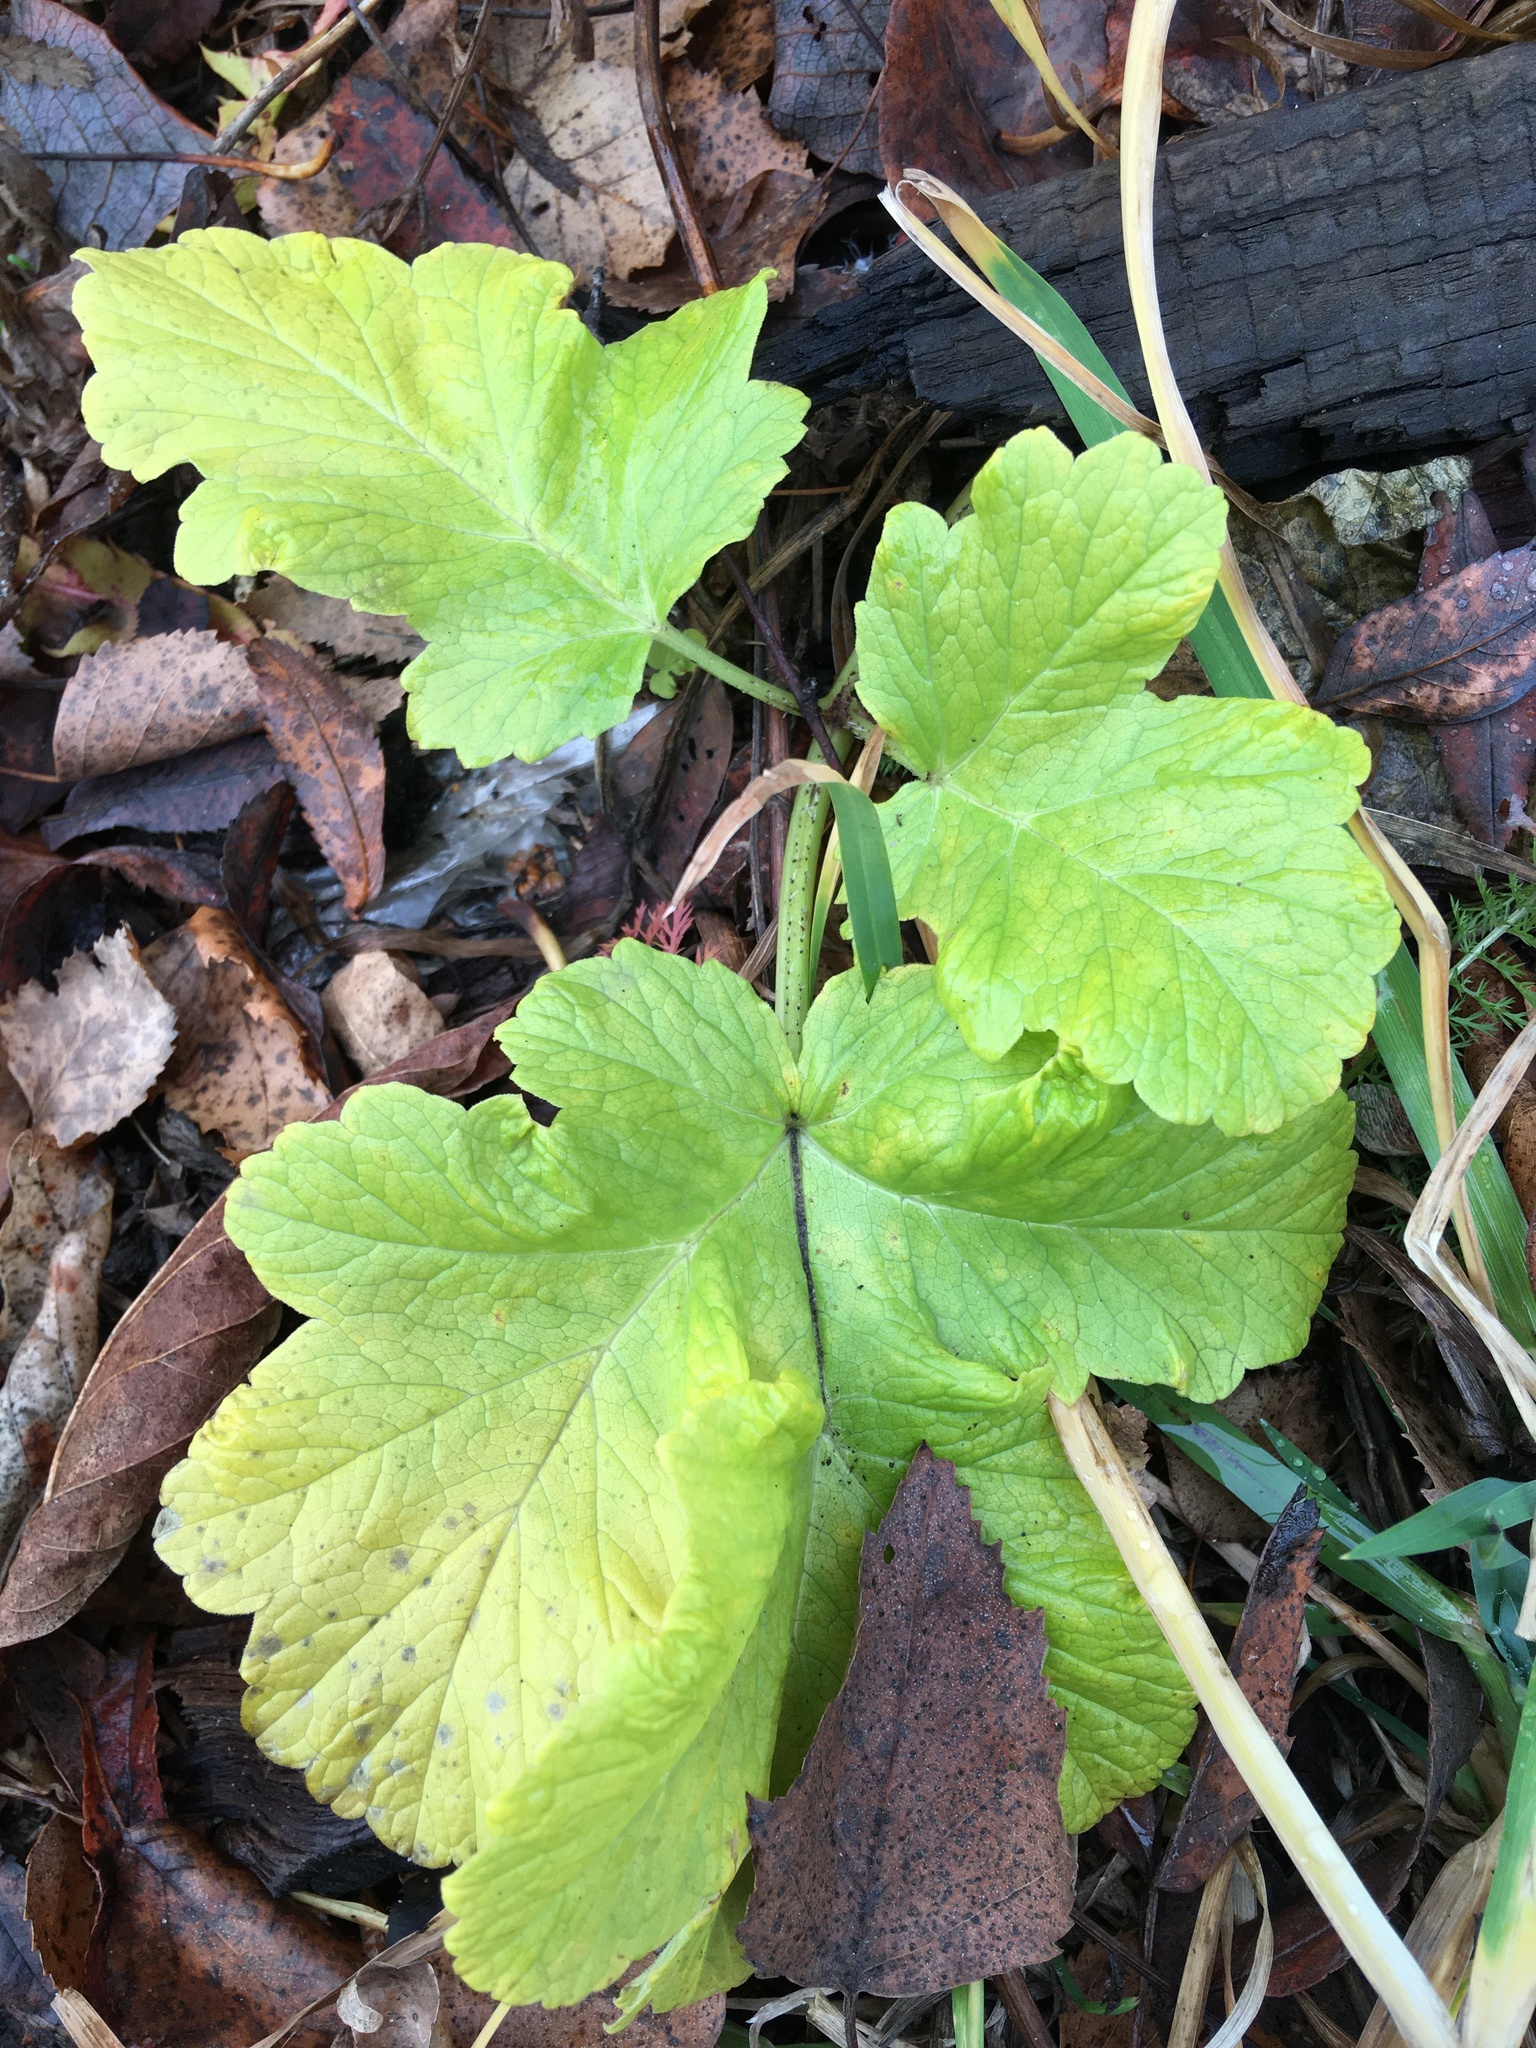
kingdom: Plantae
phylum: Tracheophyta
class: Magnoliopsida
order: Apiales
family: Apiaceae
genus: Heracleum
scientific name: Heracleum sosnowskyi
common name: Sosnowsky's hogweed
